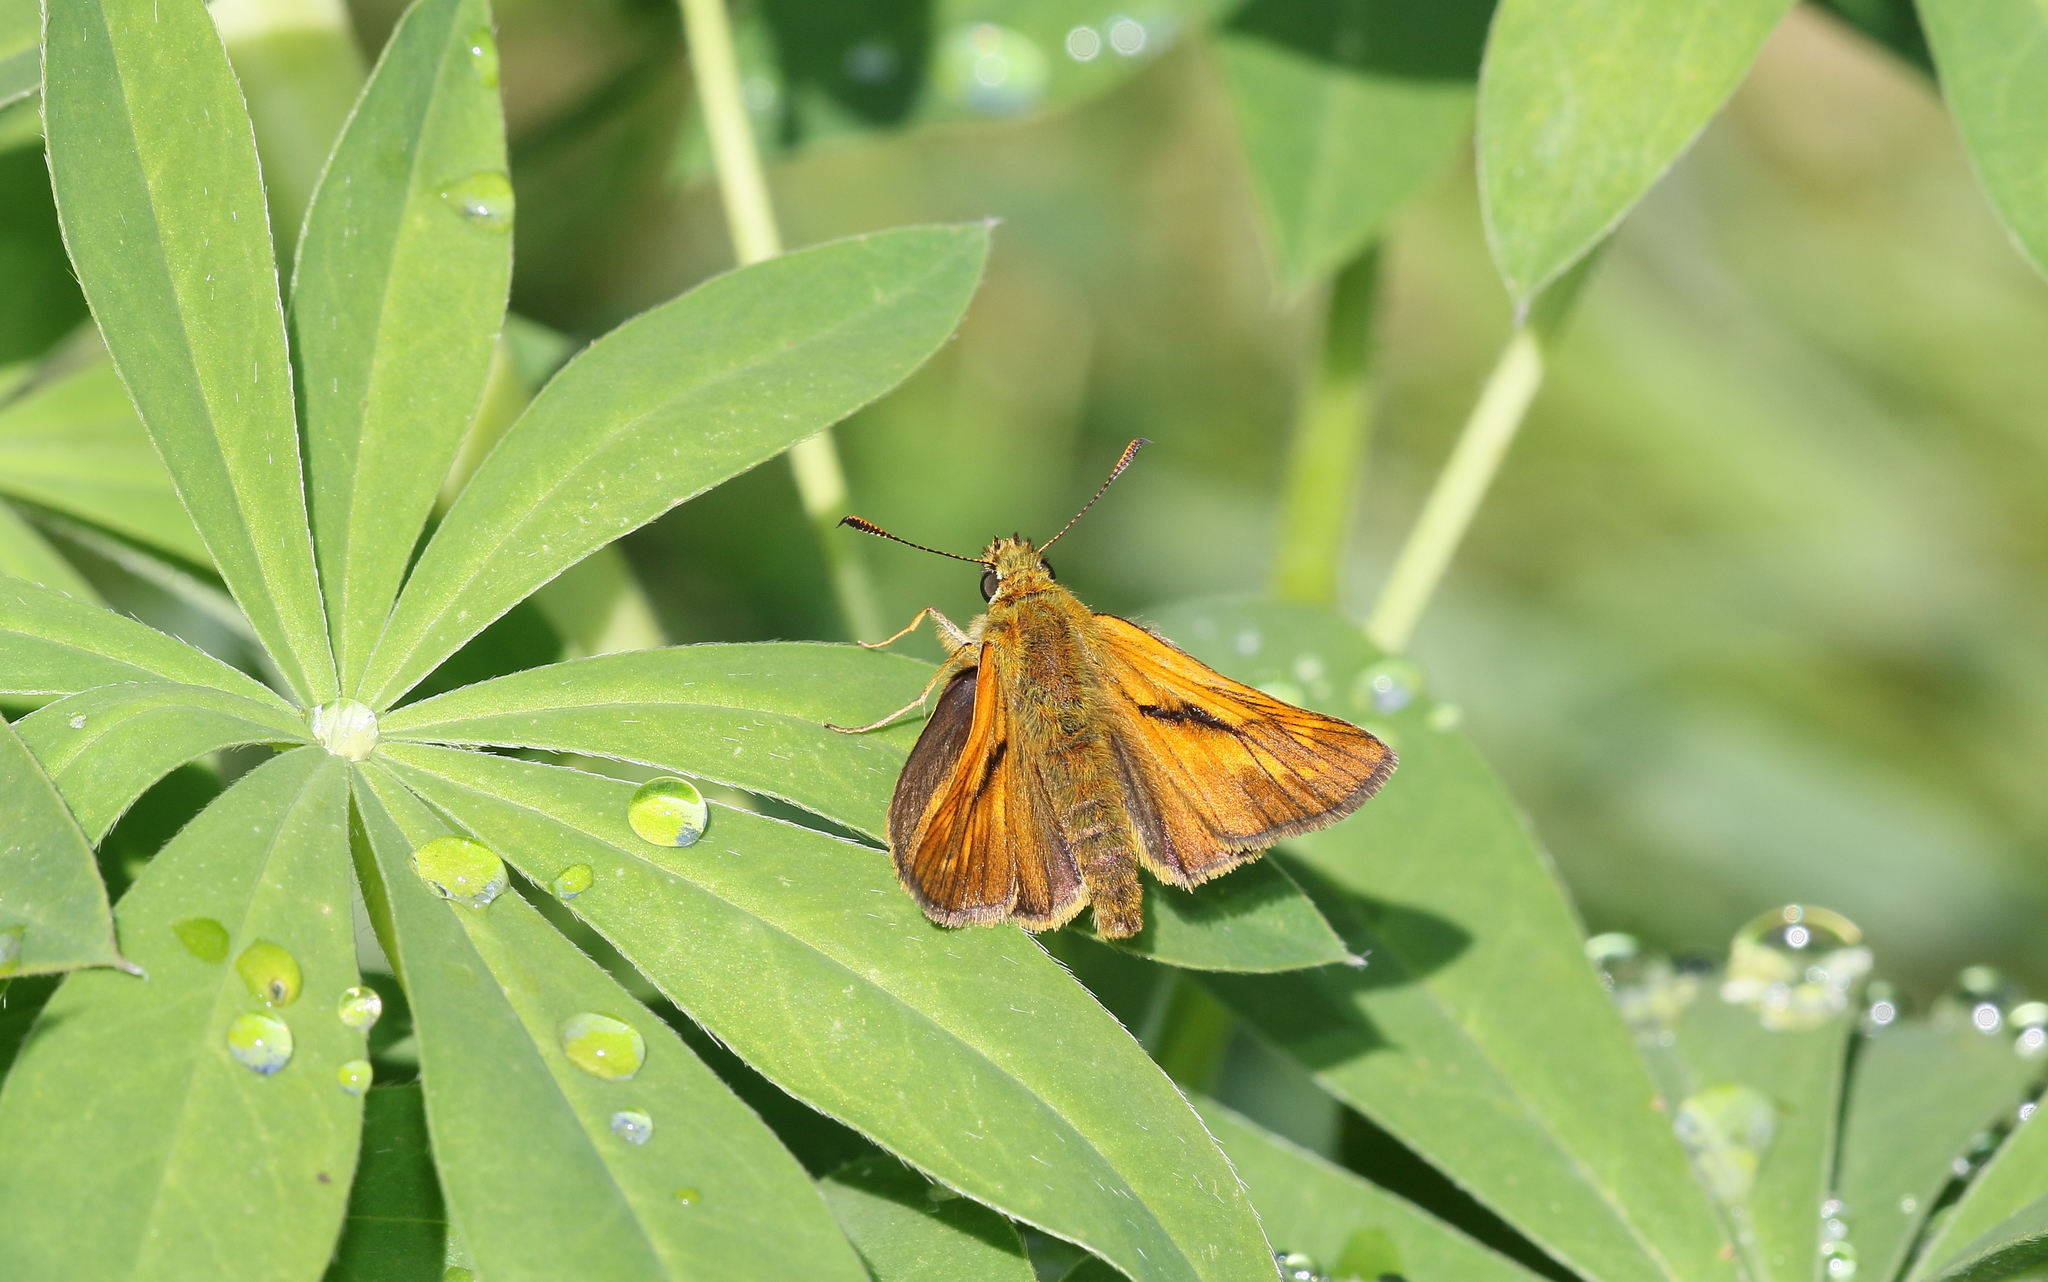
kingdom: Animalia
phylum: Arthropoda
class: Insecta
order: Lepidoptera
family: Hesperiidae
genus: Ochlodes
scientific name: Ochlodes venata
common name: Large skipper
